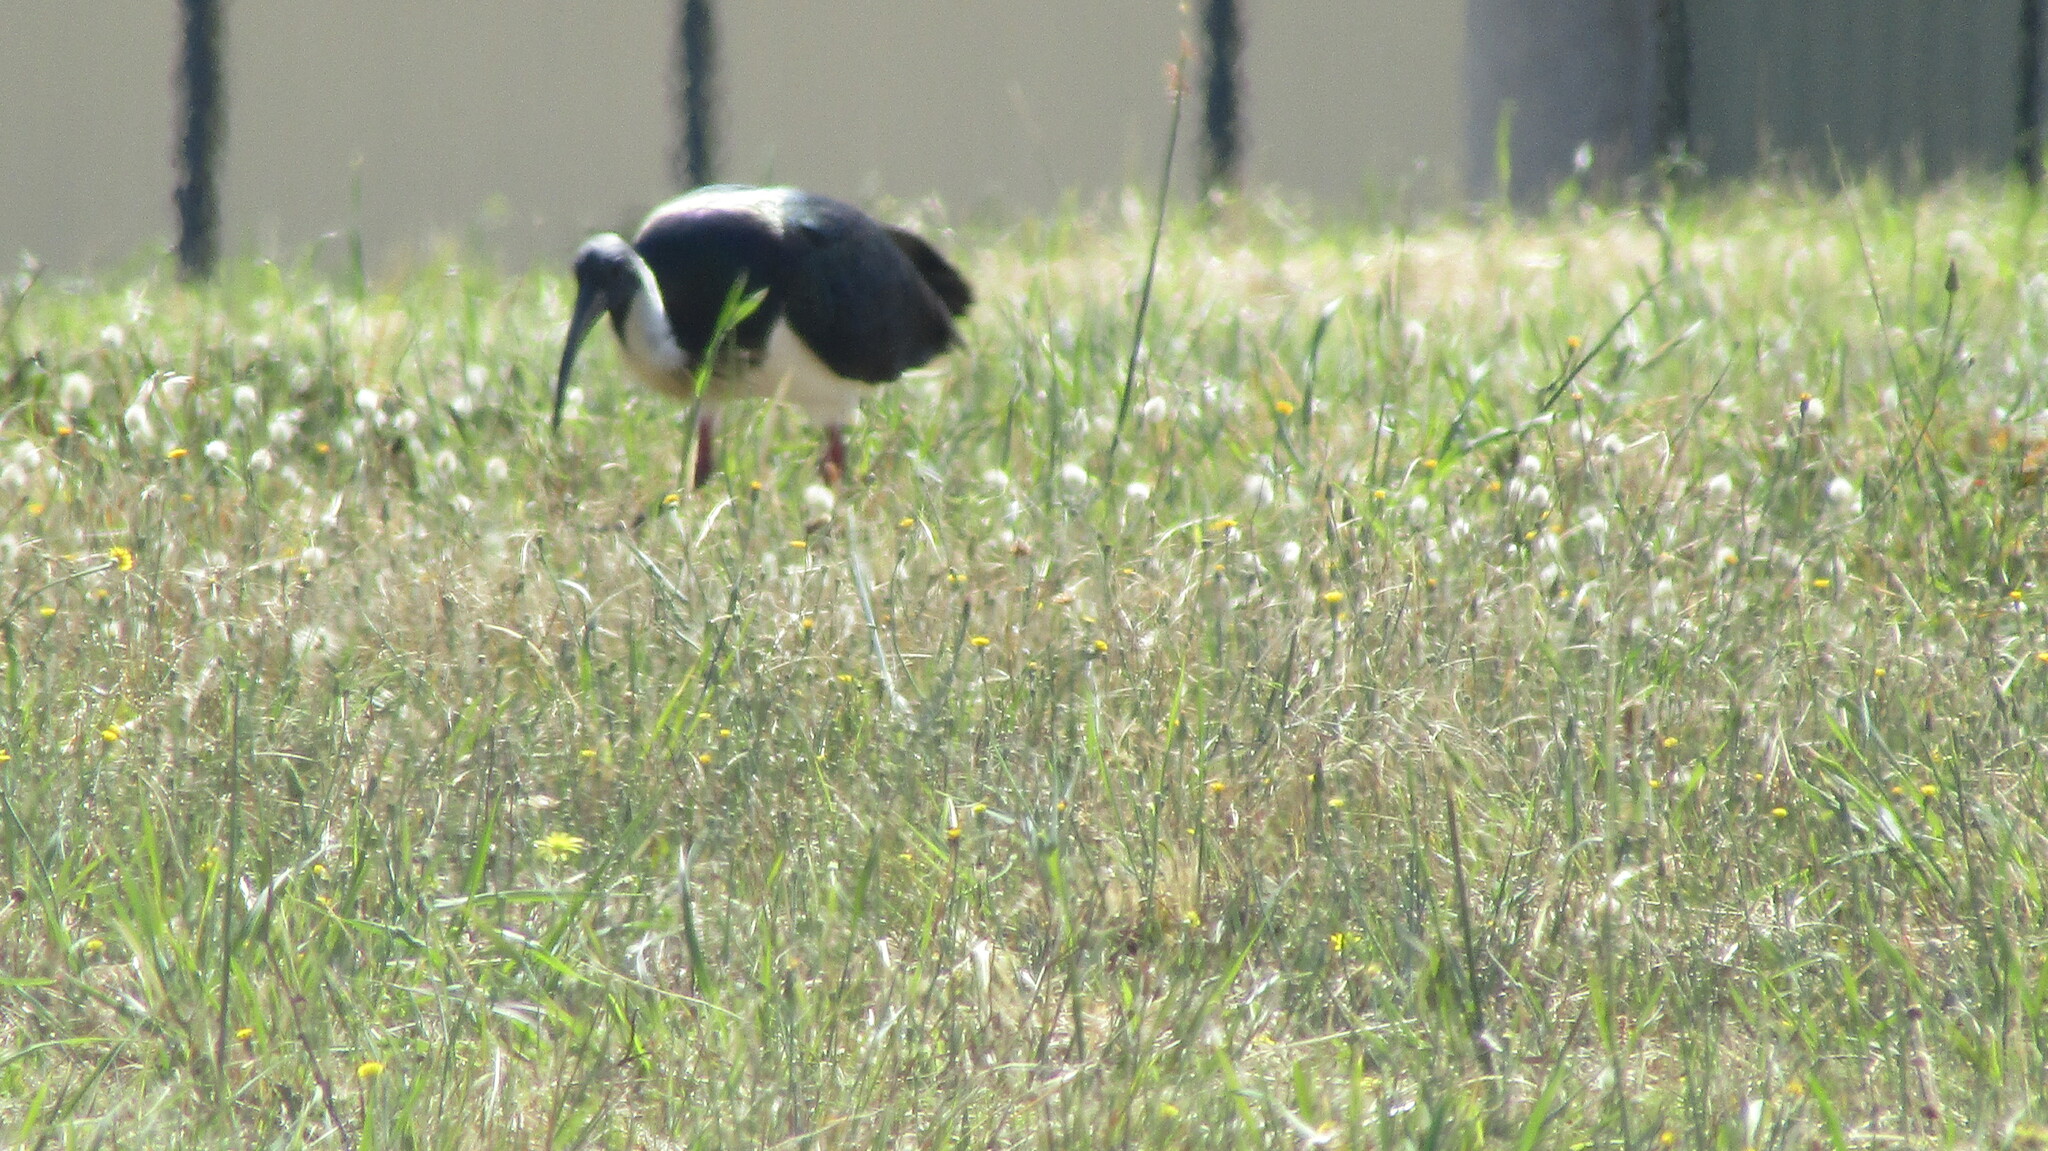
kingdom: Animalia
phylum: Chordata
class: Aves
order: Pelecaniformes
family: Threskiornithidae
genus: Threskiornis
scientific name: Threskiornis spinicollis
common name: Straw-necked ibis
